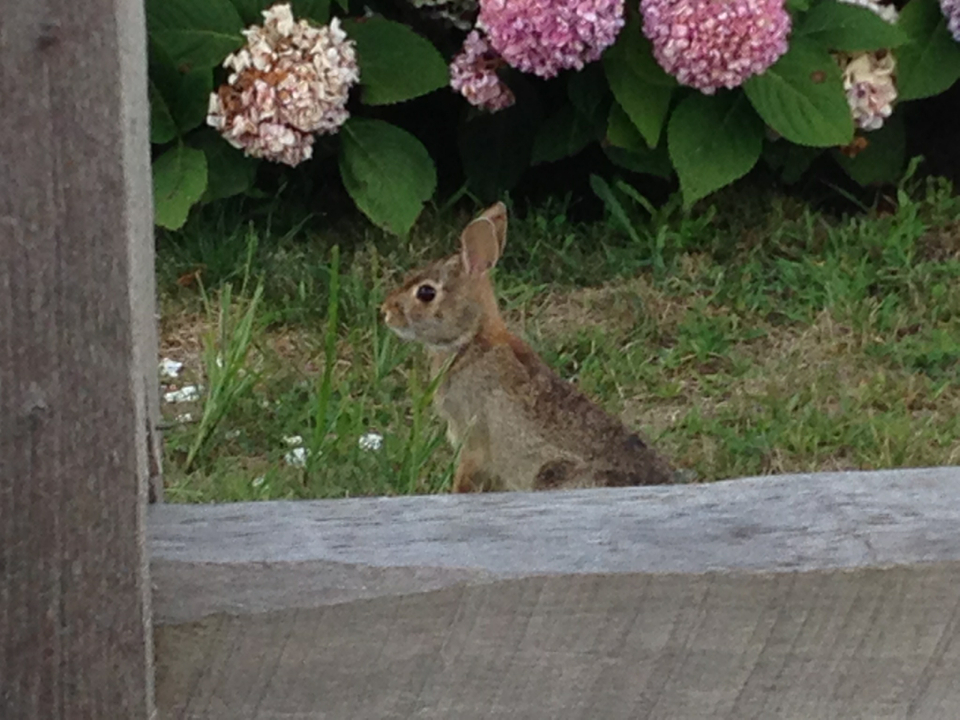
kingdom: Animalia
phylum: Chordata
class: Mammalia
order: Lagomorpha
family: Leporidae
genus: Sylvilagus
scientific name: Sylvilagus floridanus
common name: Eastern cottontail
